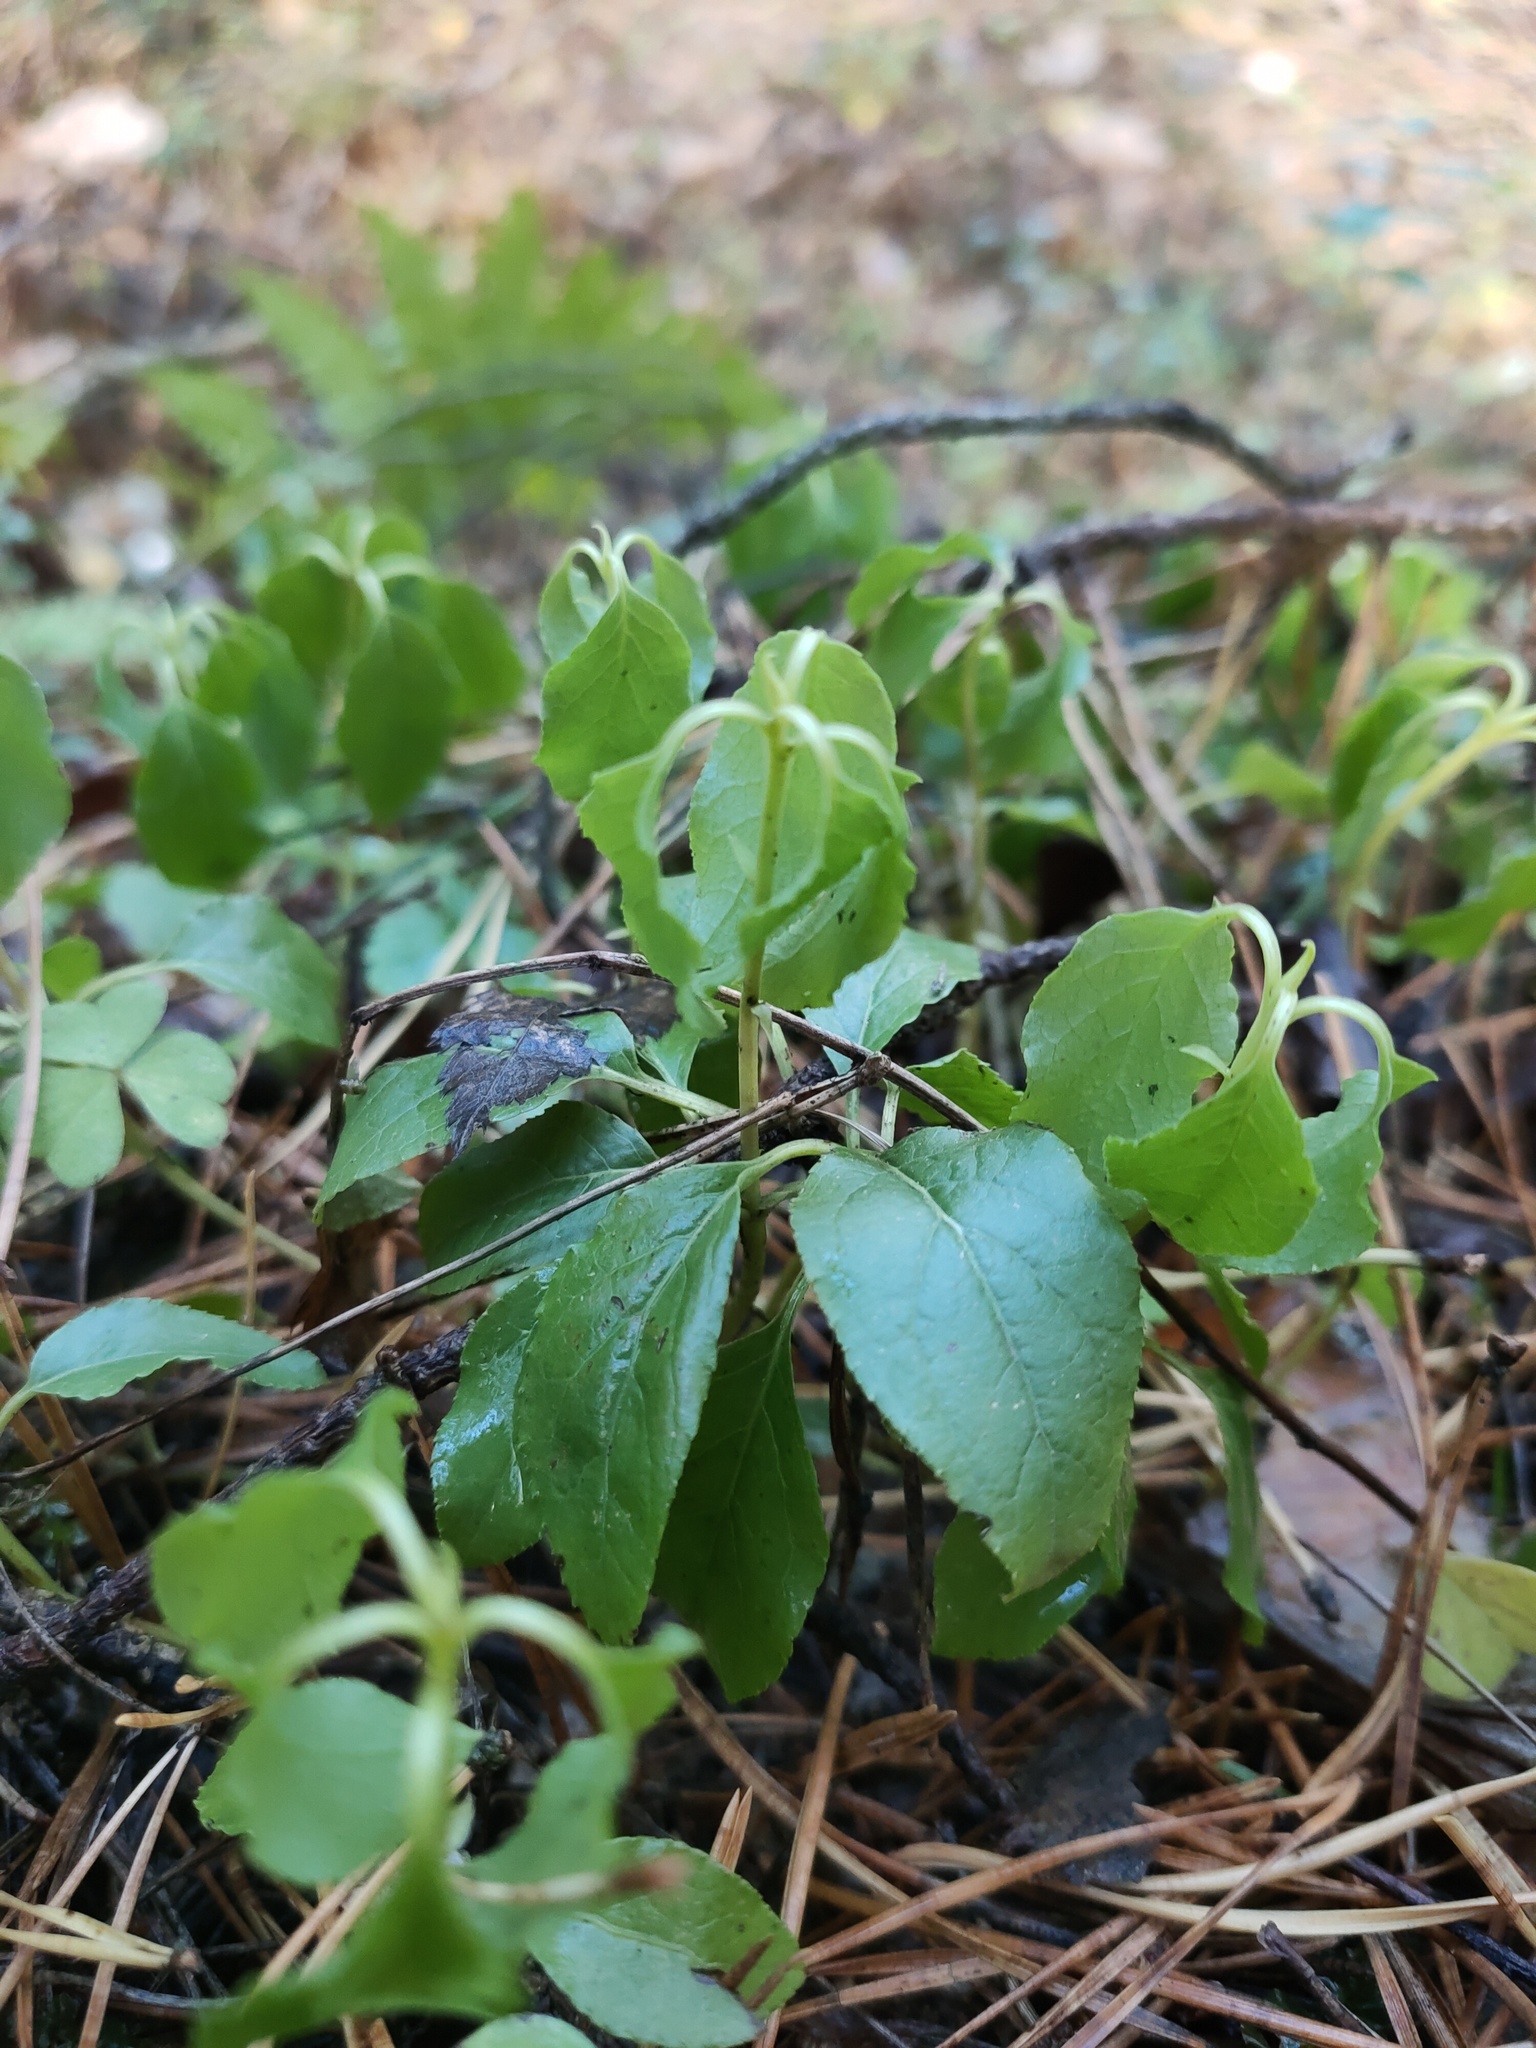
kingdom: Plantae
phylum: Tracheophyta
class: Magnoliopsida
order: Ericales
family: Ericaceae
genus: Orthilia
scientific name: Orthilia secunda
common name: One-sided orthilia
